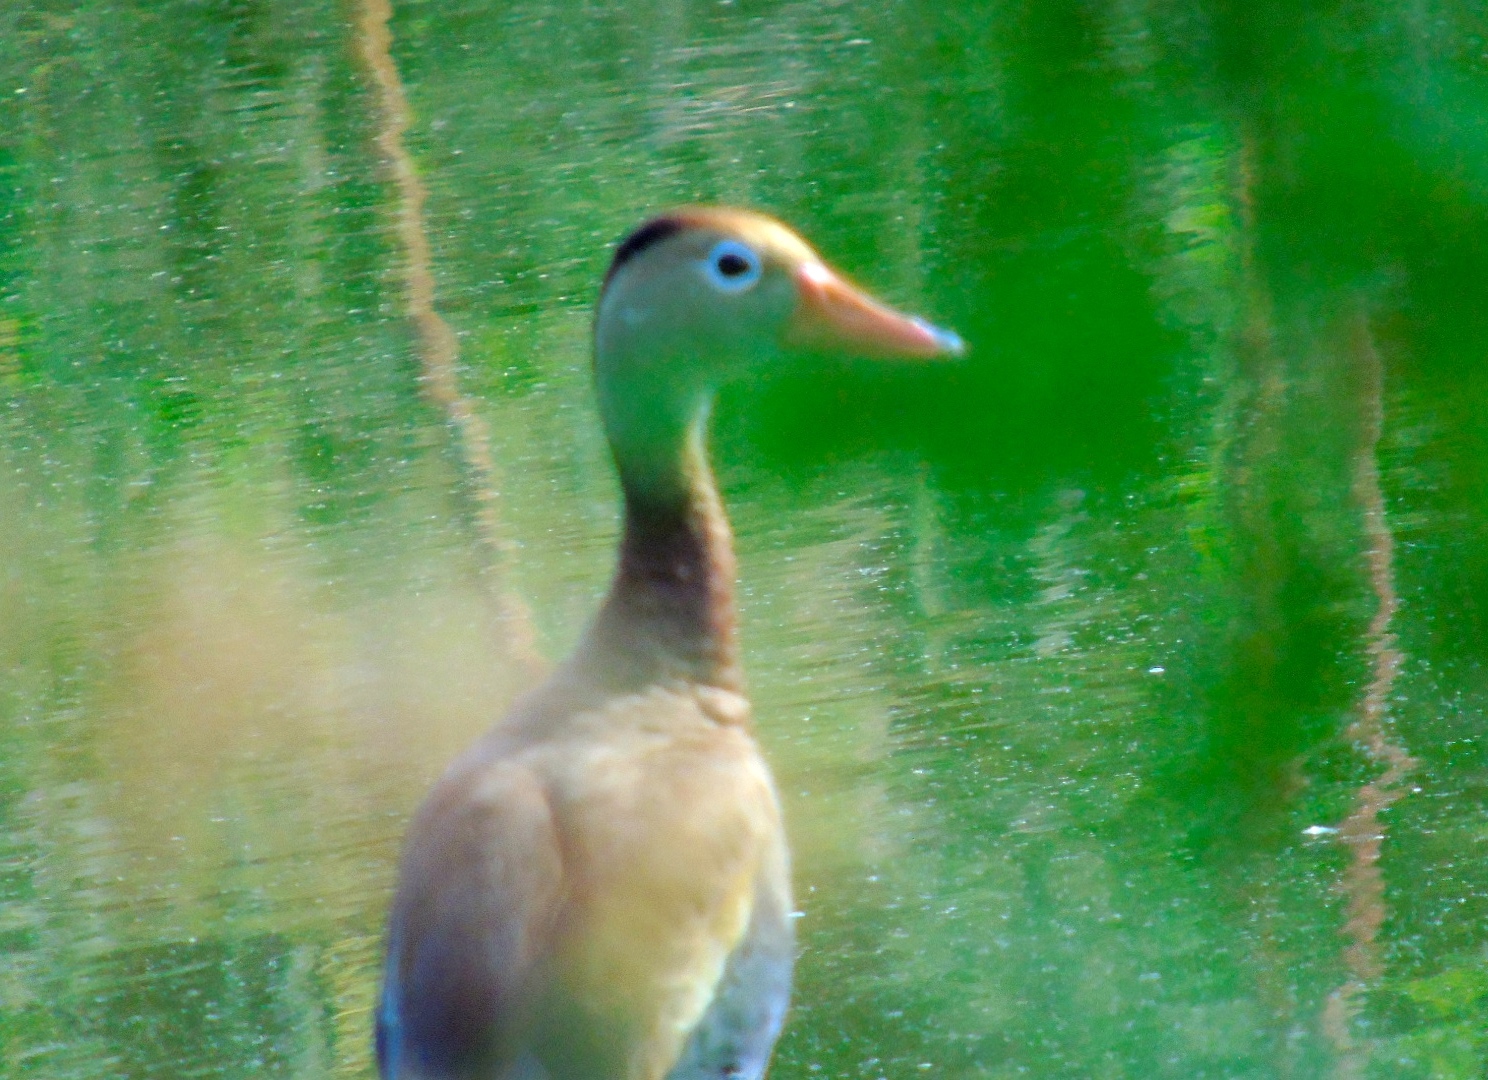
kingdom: Animalia
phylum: Chordata
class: Aves
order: Anseriformes
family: Anatidae
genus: Dendrocygna
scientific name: Dendrocygna autumnalis
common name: Black-bellied whistling duck
